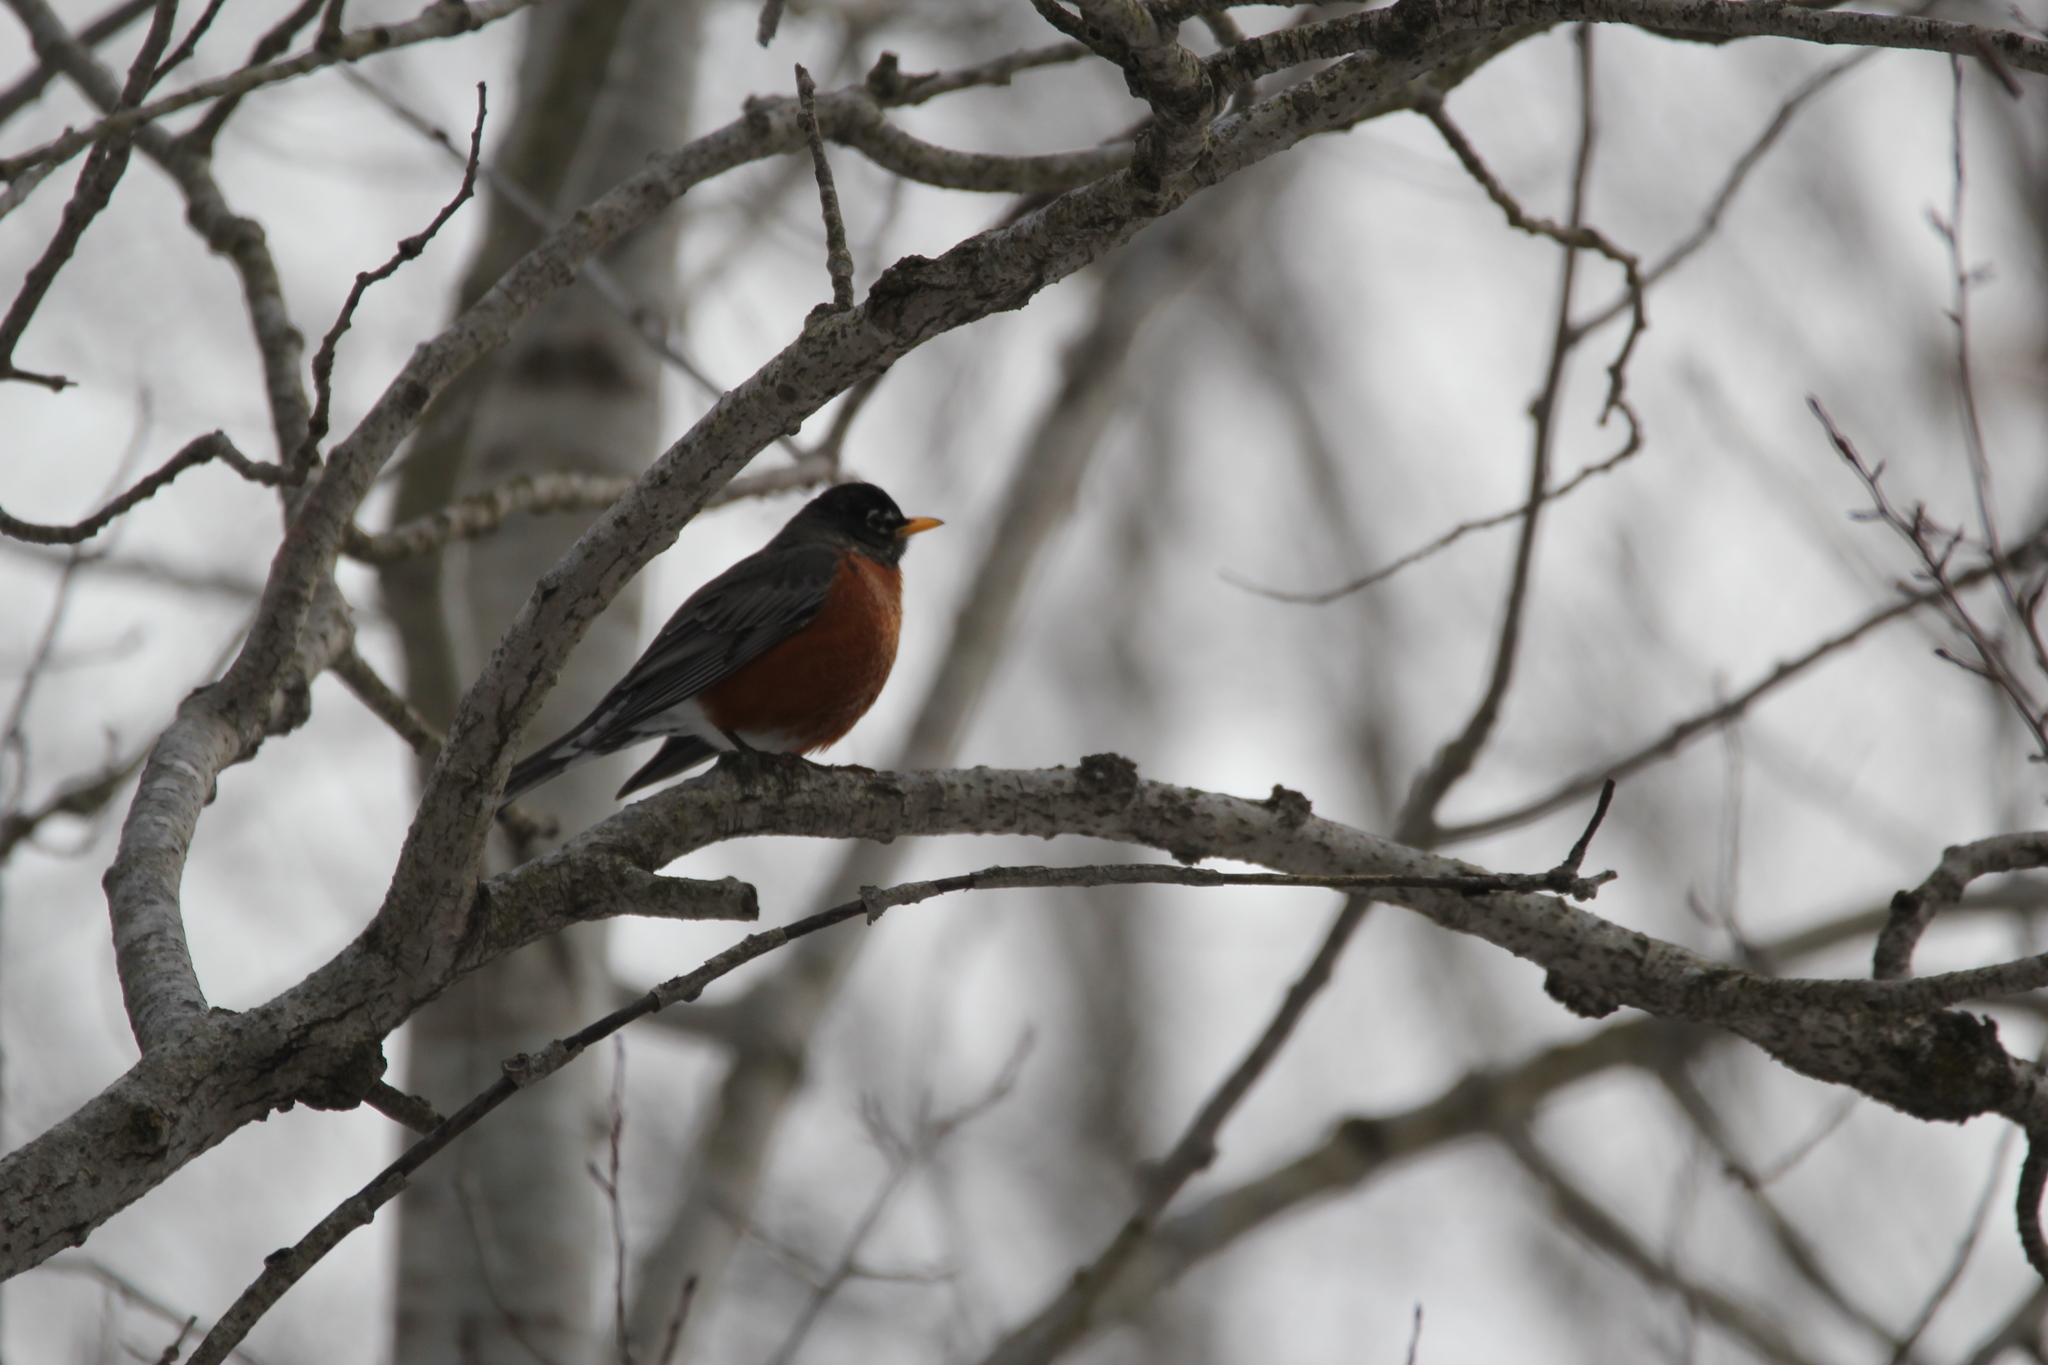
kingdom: Animalia
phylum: Chordata
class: Aves
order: Passeriformes
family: Turdidae
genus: Turdus
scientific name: Turdus migratorius
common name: American robin
